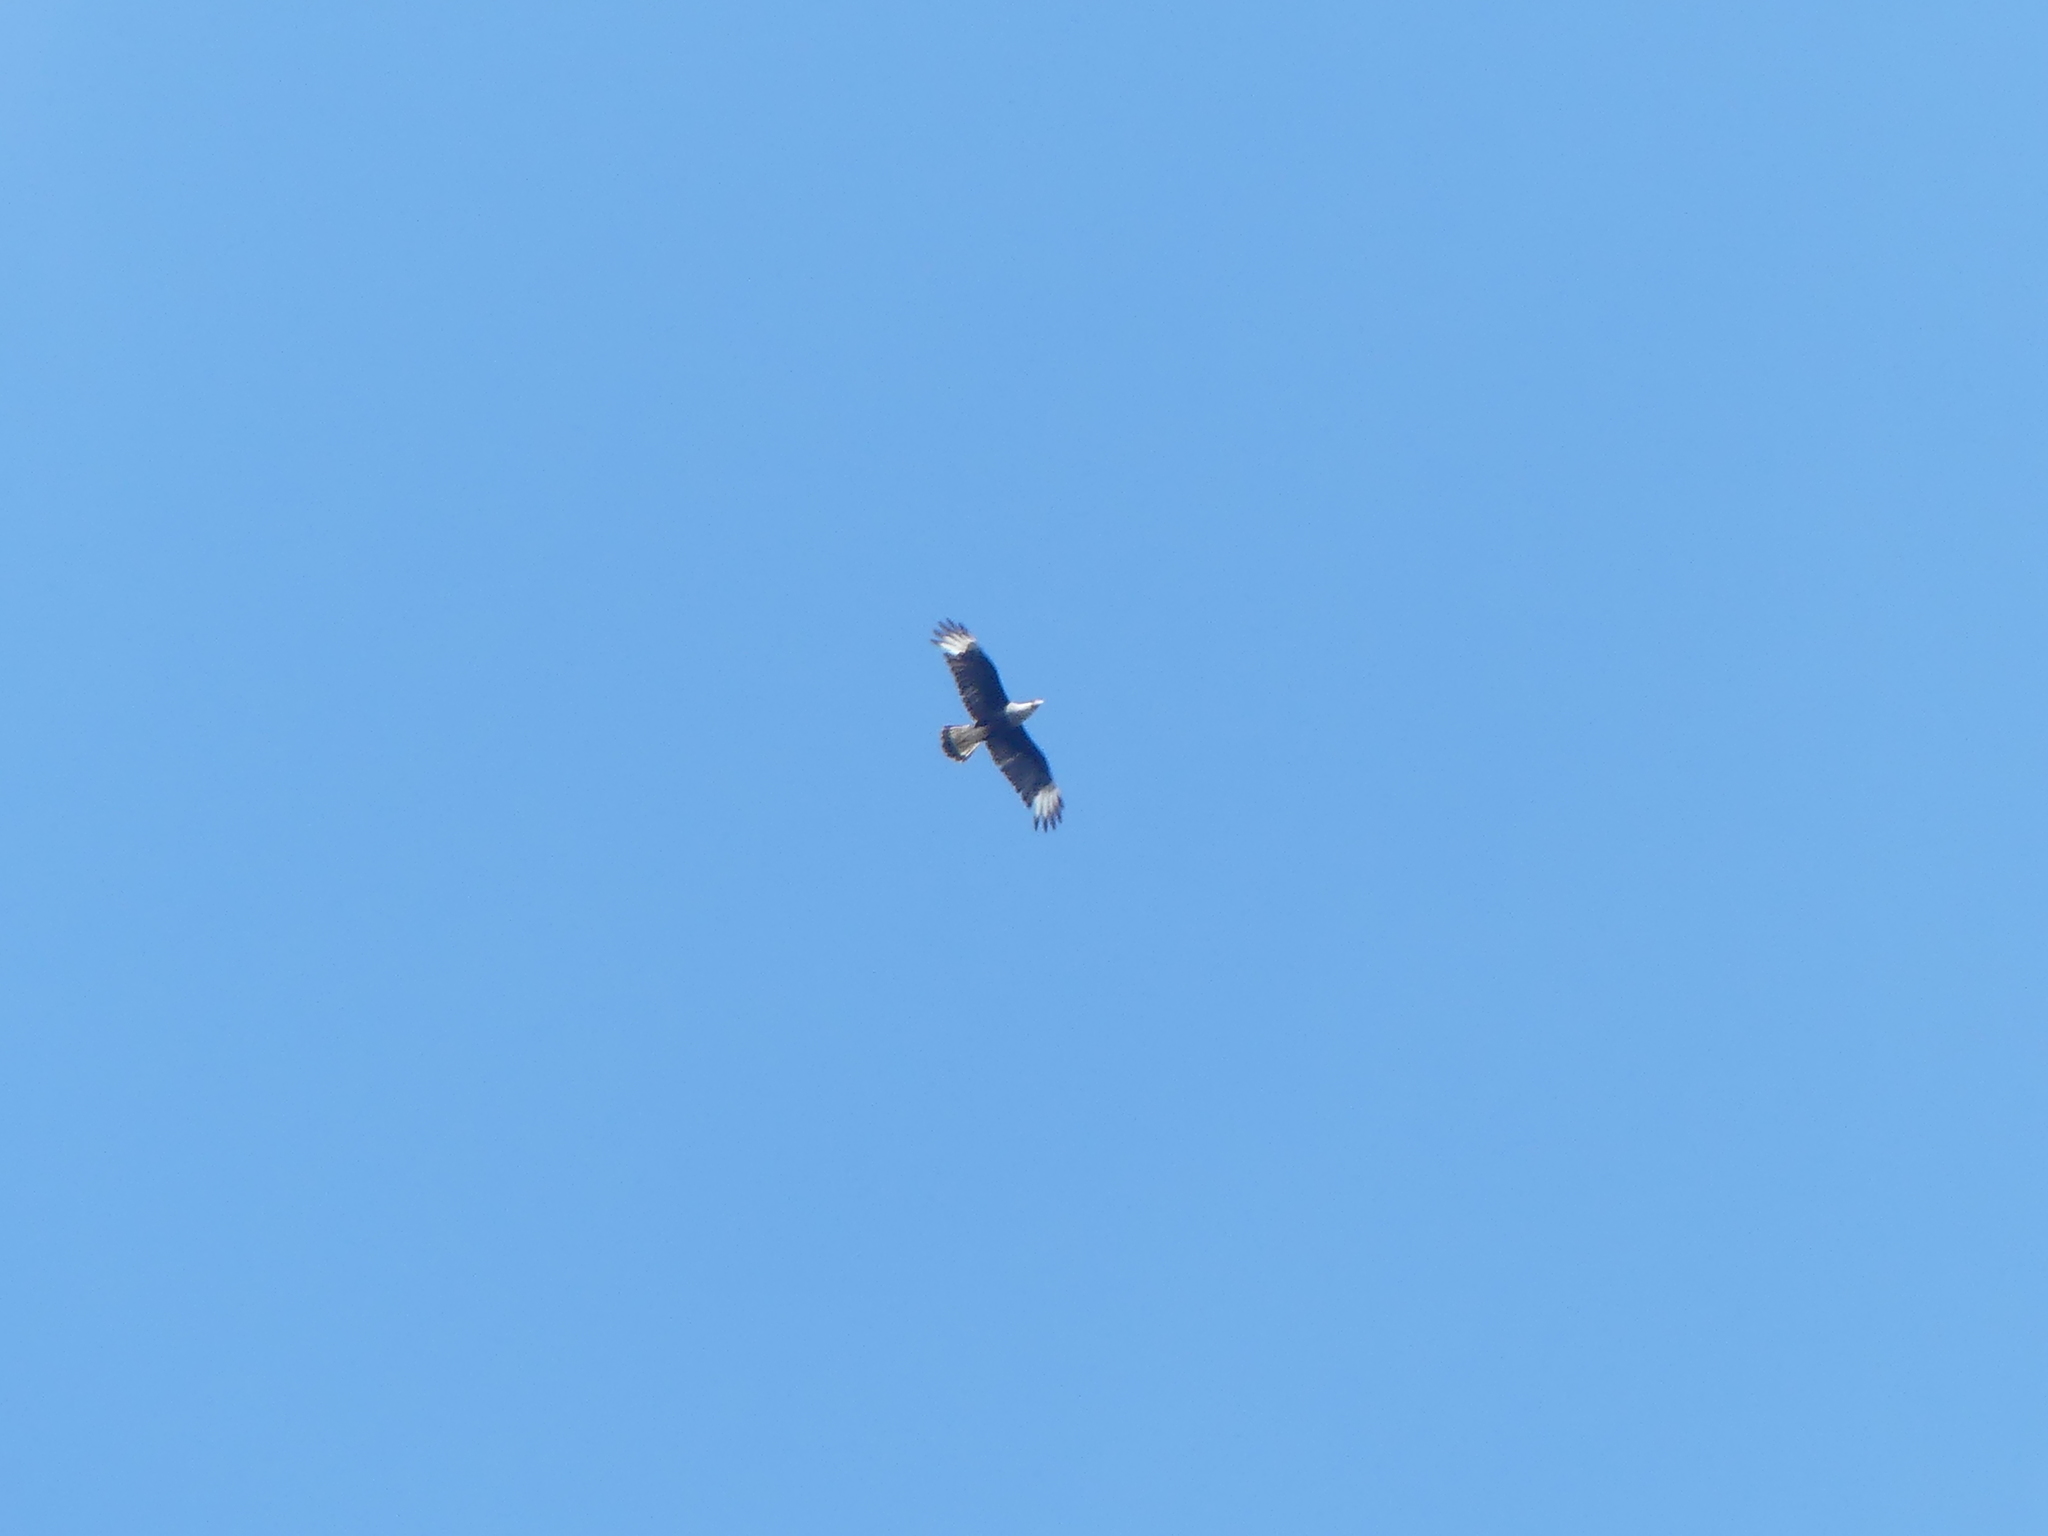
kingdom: Animalia
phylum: Chordata
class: Aves
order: Falconiformes
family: Falconidae
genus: Caracara
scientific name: Caracara plancus
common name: Southern caracara
